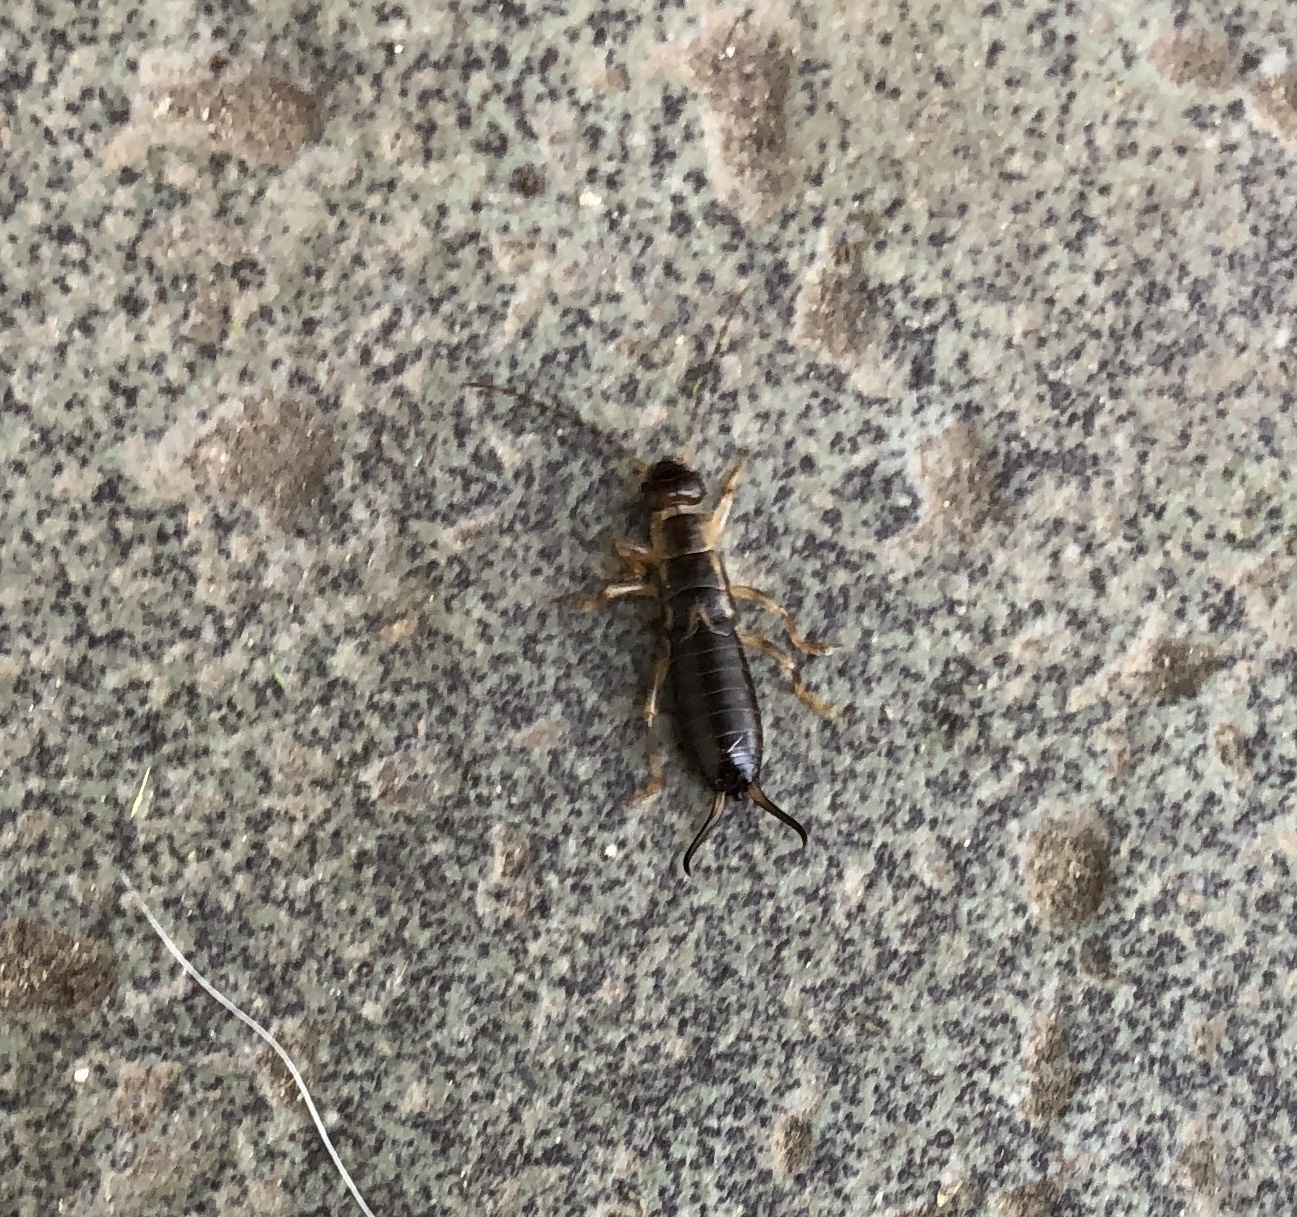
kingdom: Animalia
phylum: Arthropoda
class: Insecta
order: Dermaptera
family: Forficulidae
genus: Forficula
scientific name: Forficula
